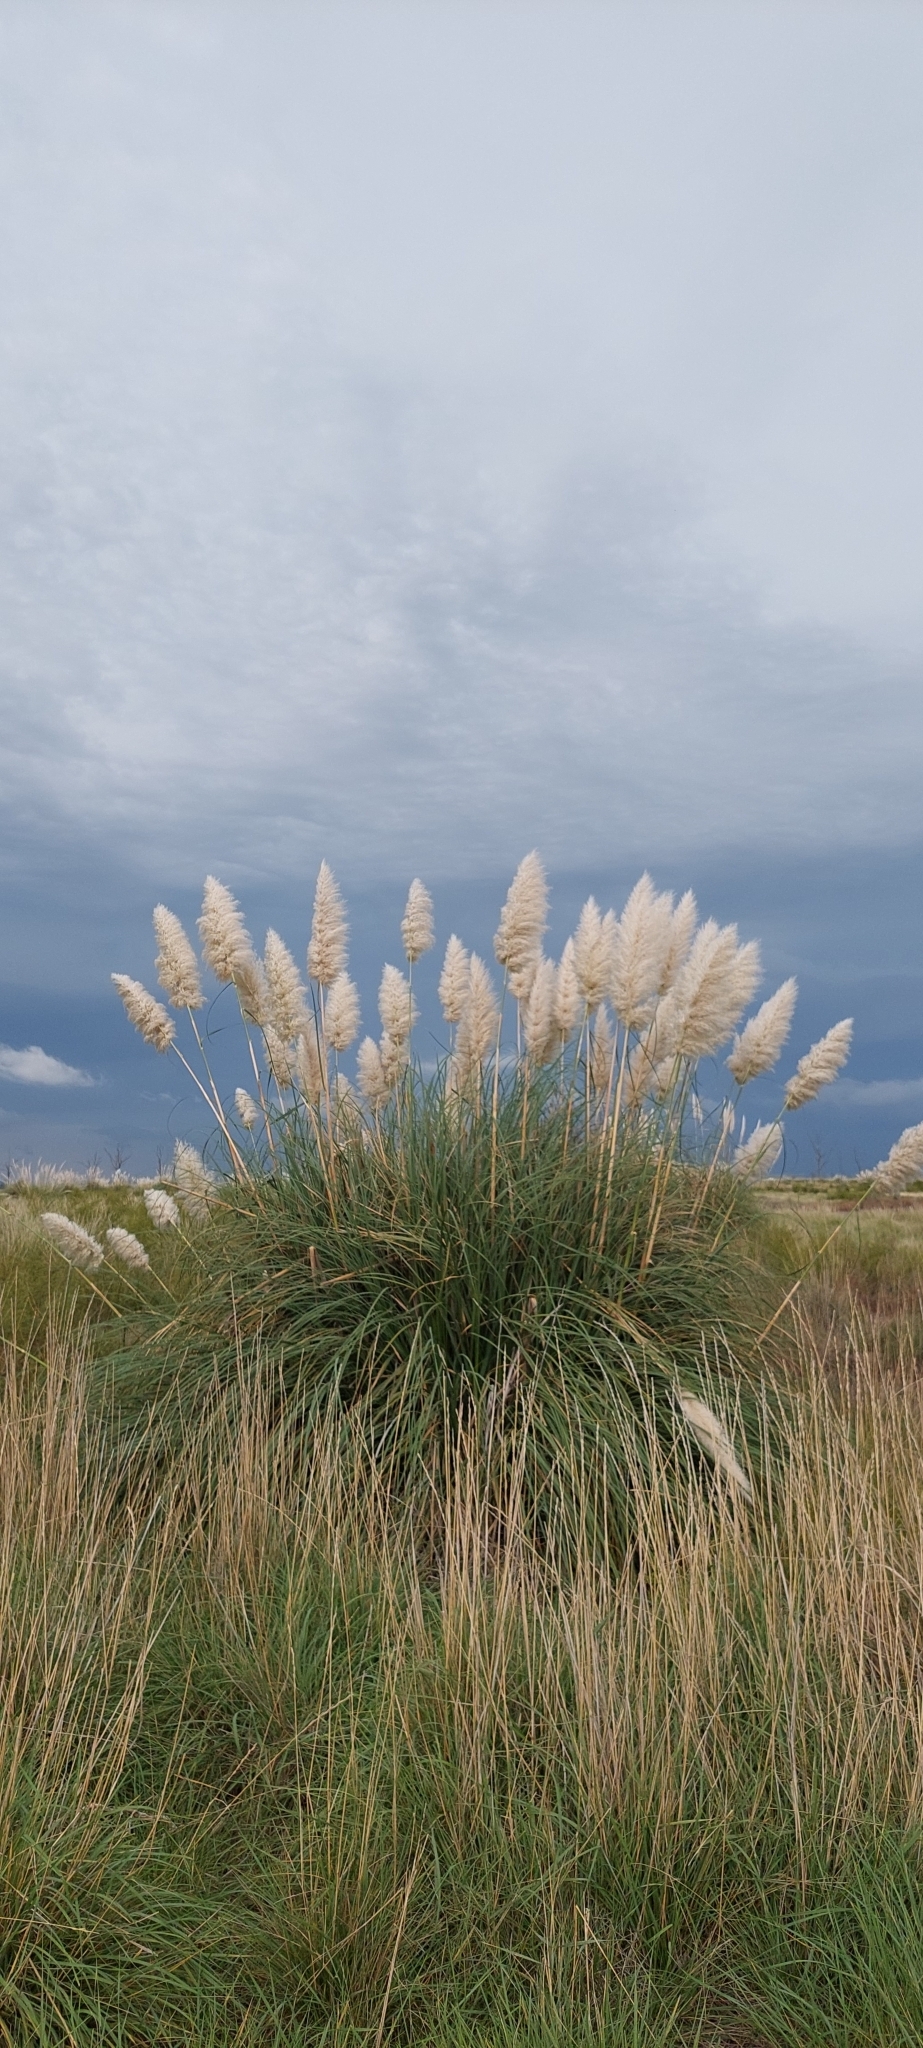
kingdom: Plantae
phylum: Tracheophyta
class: Liliopsida
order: Poales
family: Poaceae
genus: Cortaderia
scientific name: Cortaderia selloana
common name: Uruguayan pampas grass
